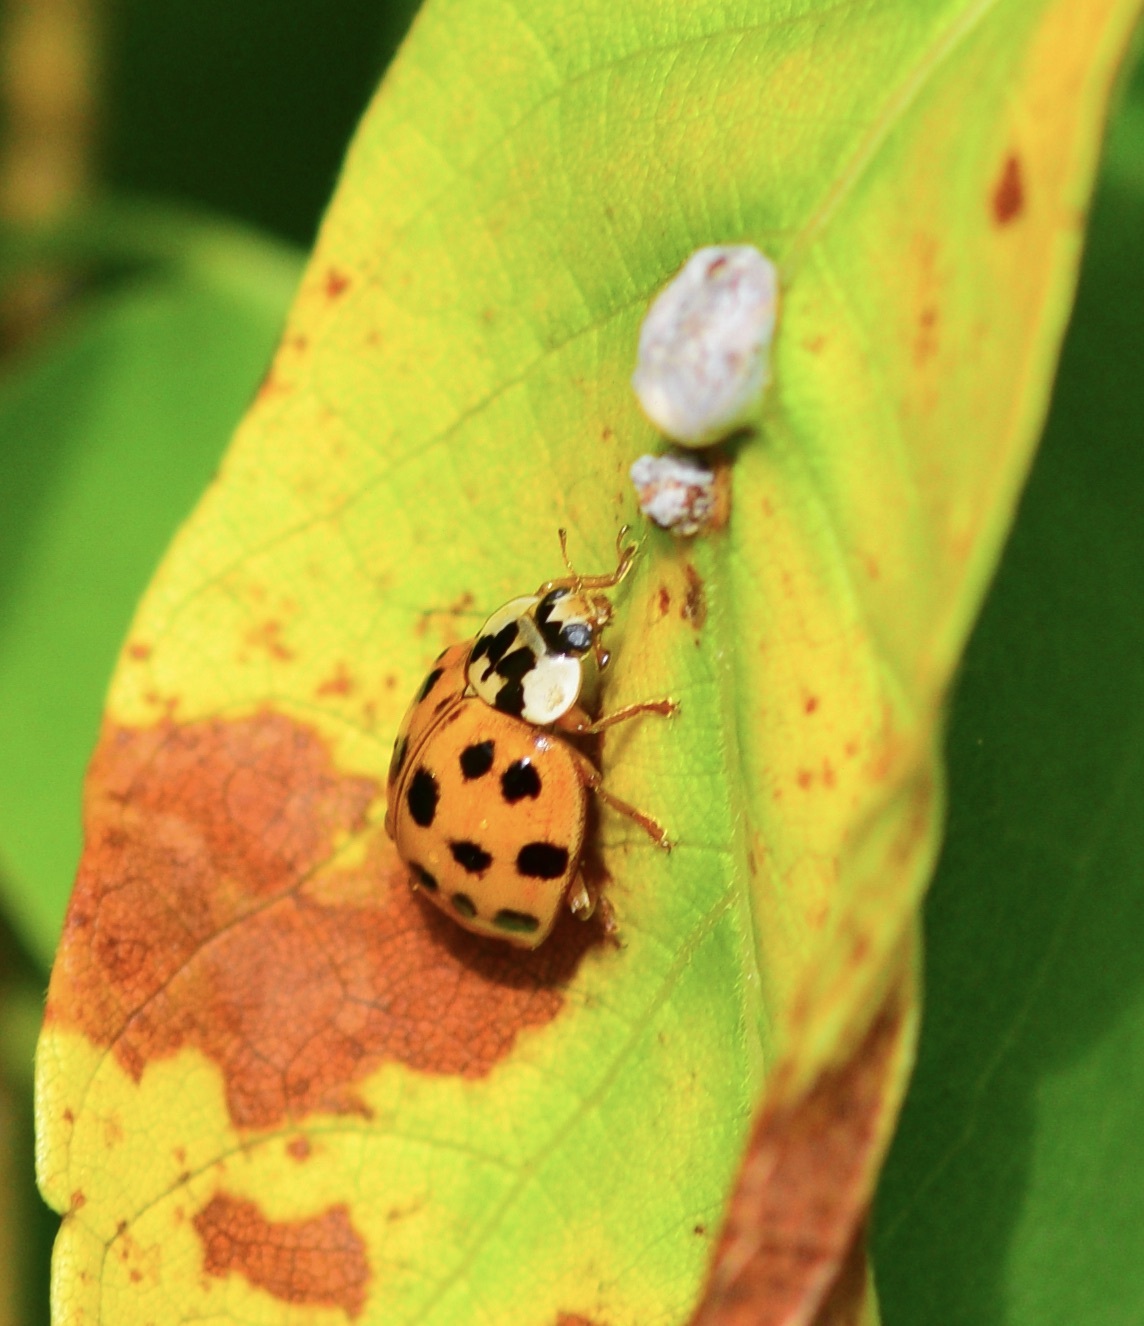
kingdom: Animalia
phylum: Arthropoda
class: Insecta
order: Coleoptera
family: Coccinellidae
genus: Harmonia
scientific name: Harmonia axyridis
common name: Harlequin ladybird
